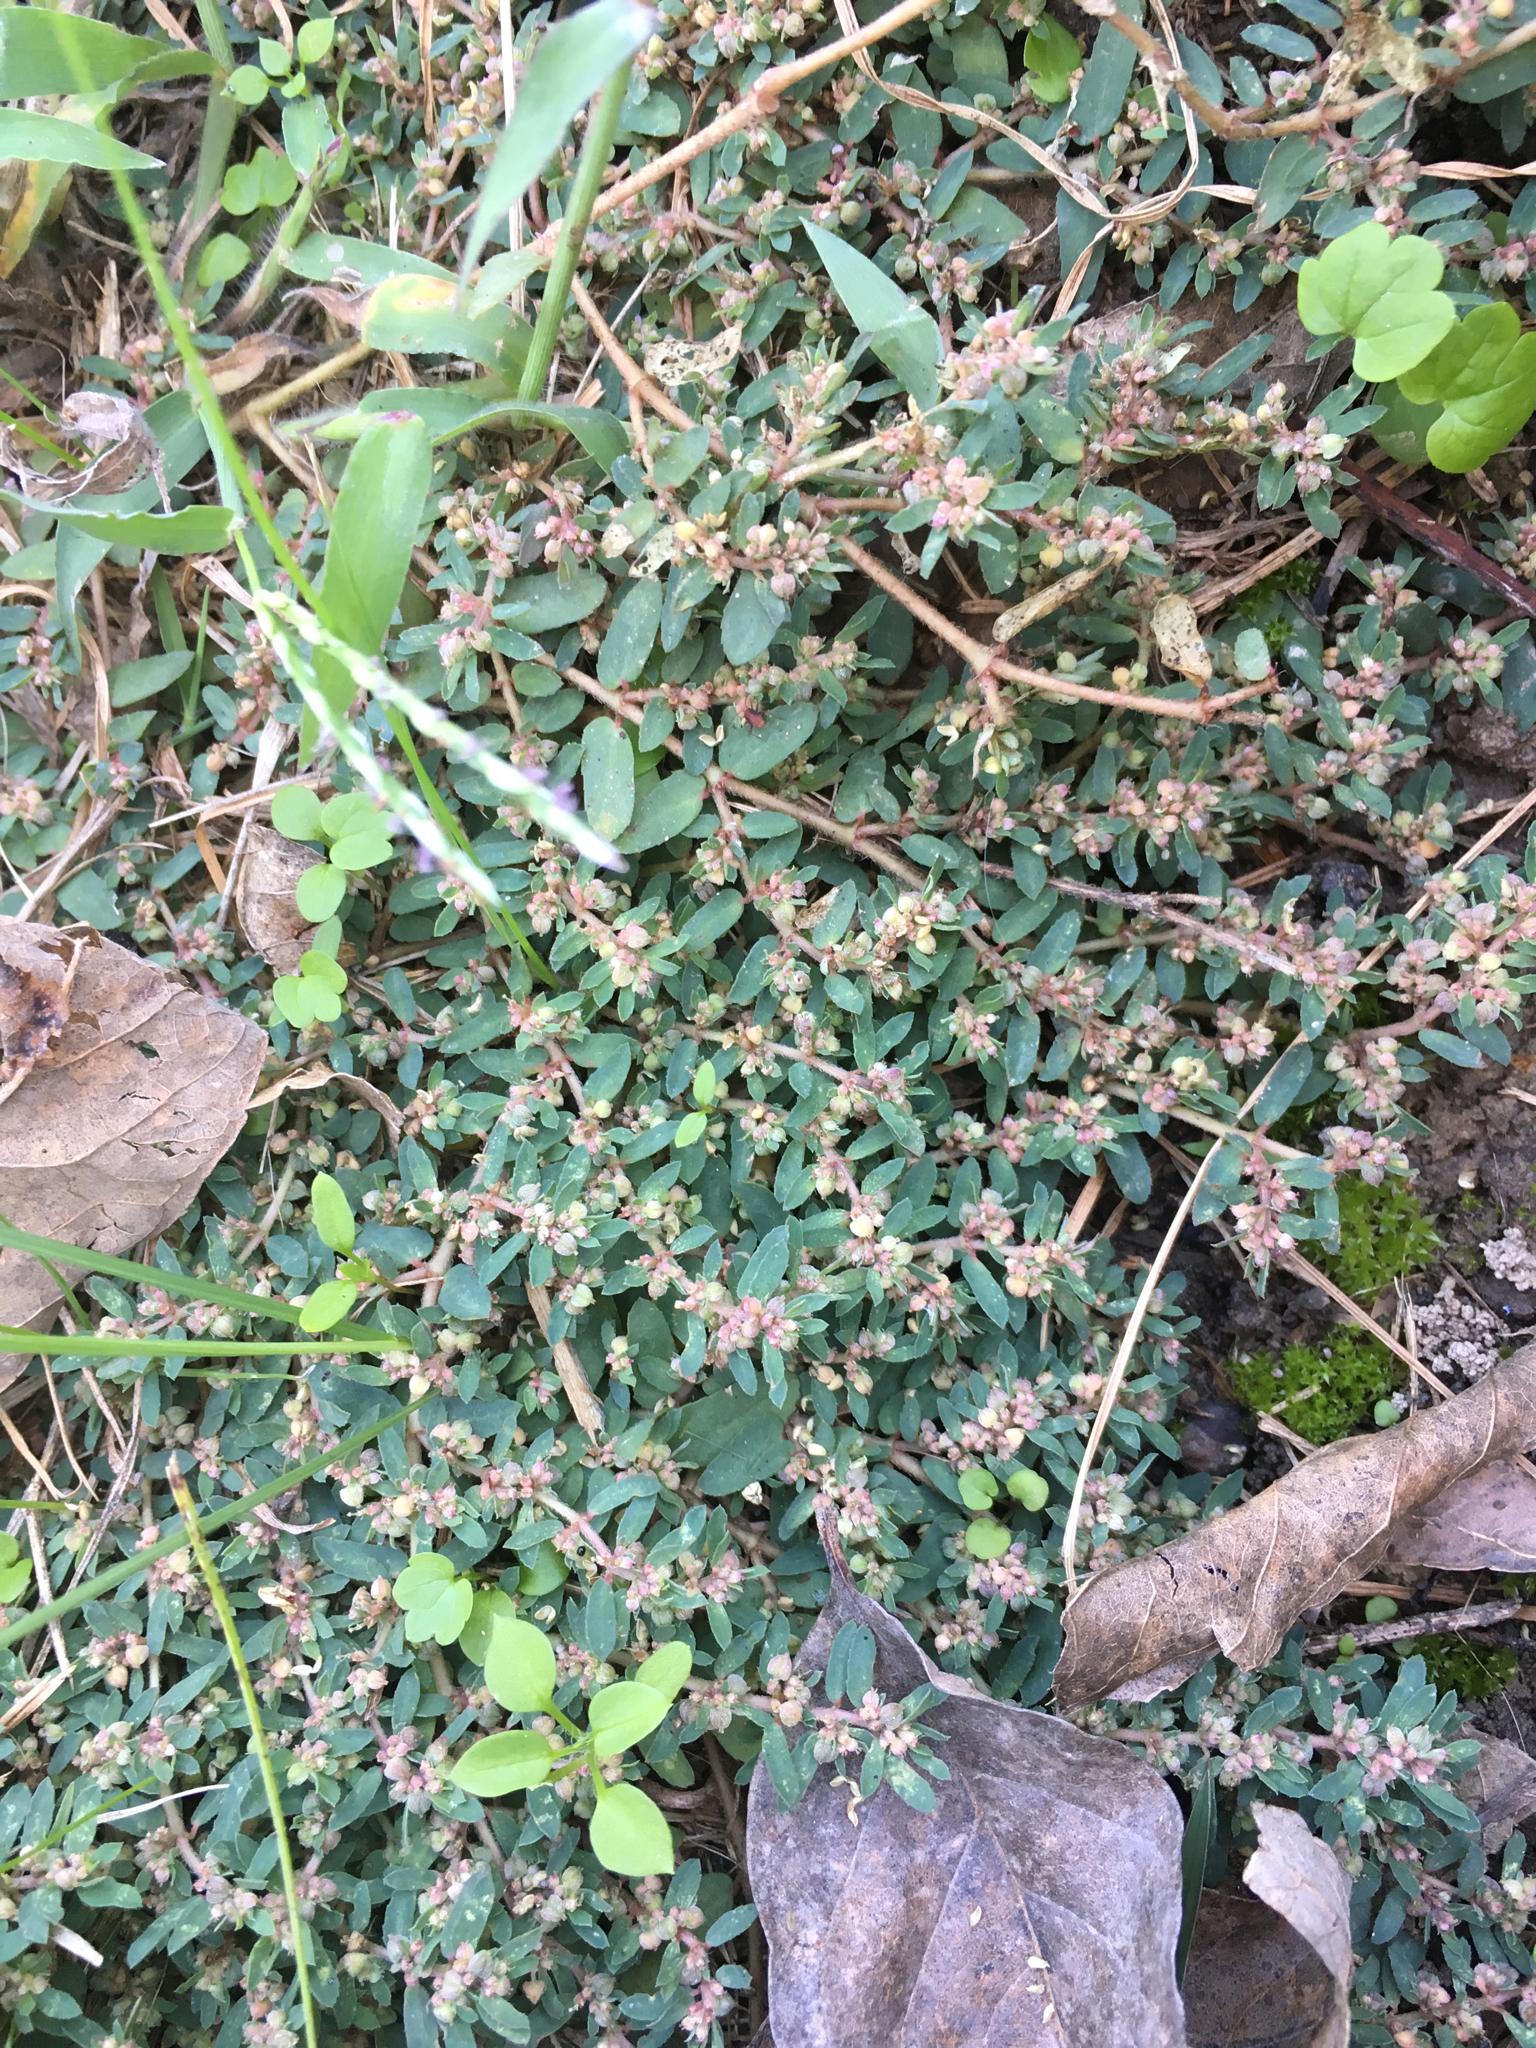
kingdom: Plantae
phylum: Tracheophyta
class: Magnoliopsida
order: Malpighiales
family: Euphorbiaceae
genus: Euphorbia
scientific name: Euphorbia maculata
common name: Spotted spurge
